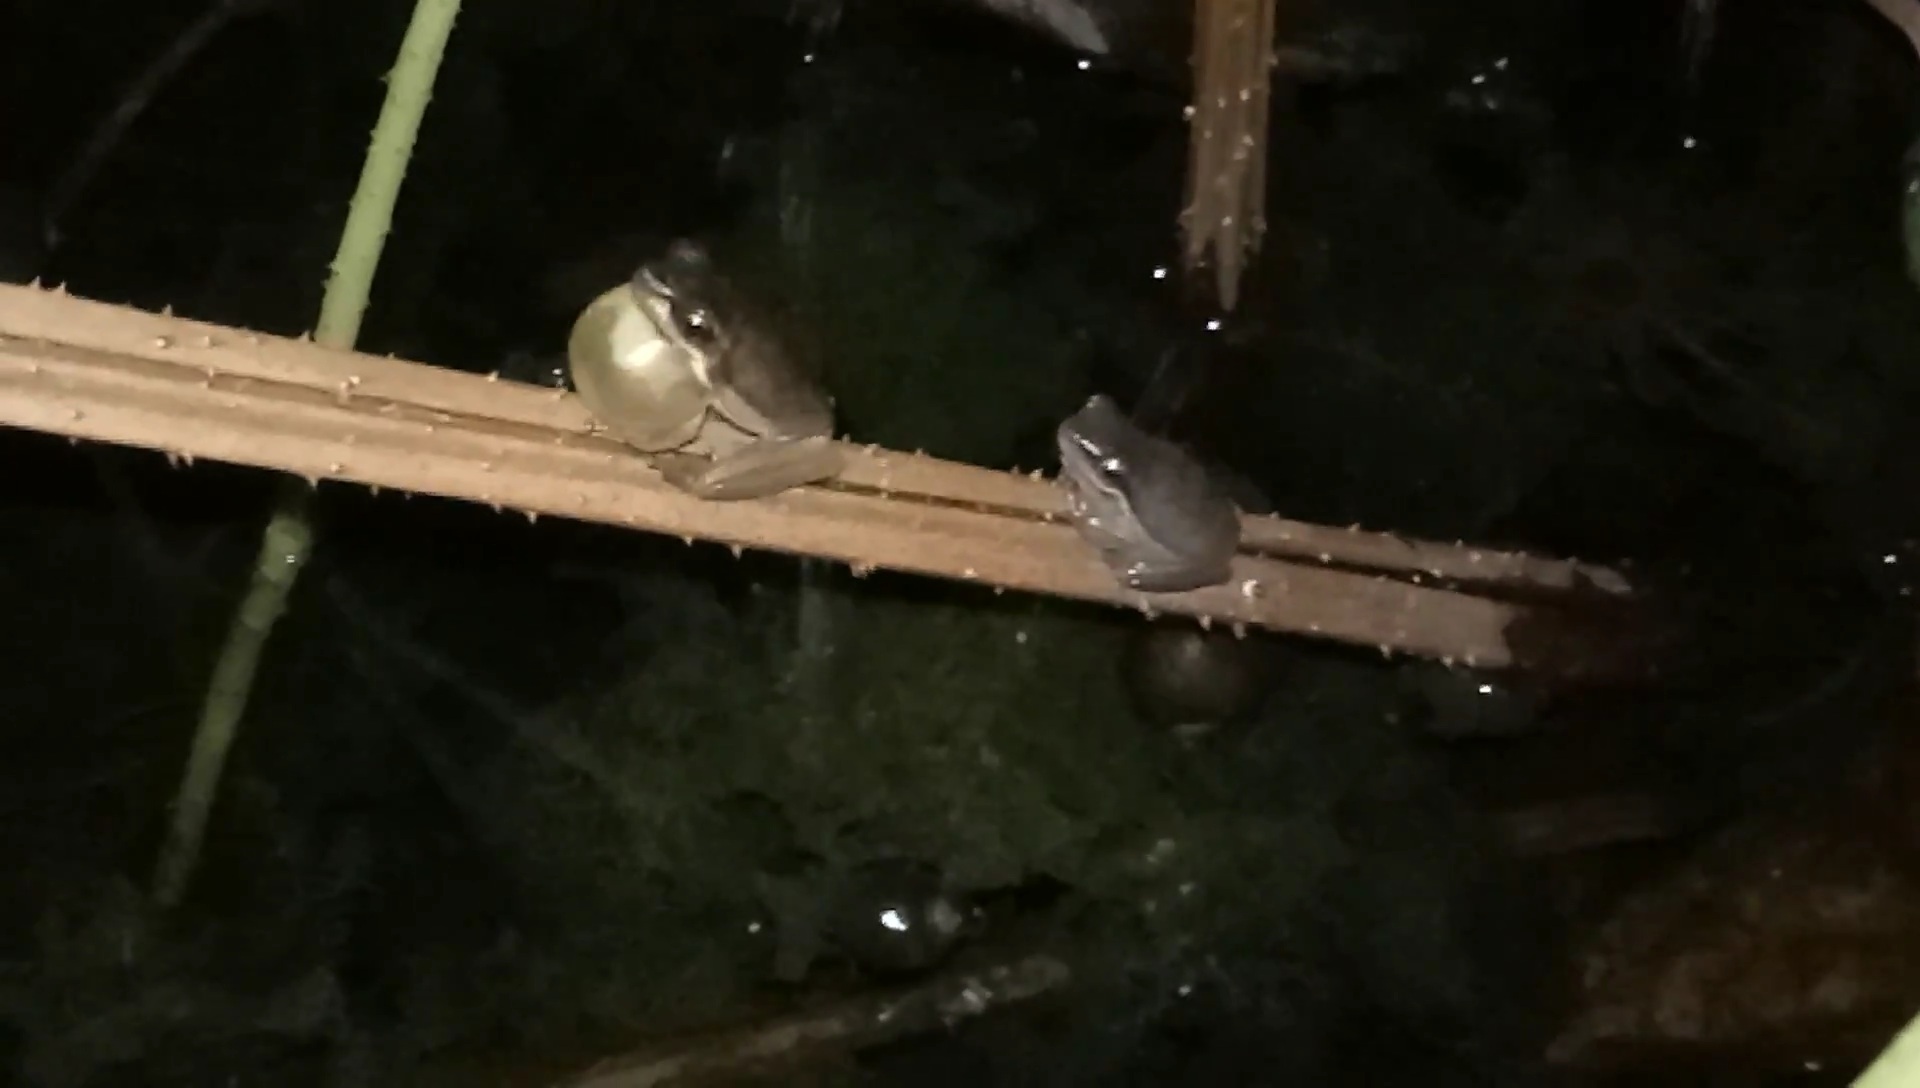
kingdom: Animalia
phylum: Chordata
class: Amphibia
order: Anura
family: Pelodryadidae
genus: Litoria
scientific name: Litoria fallax
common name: Eastern dwarf treefrog
